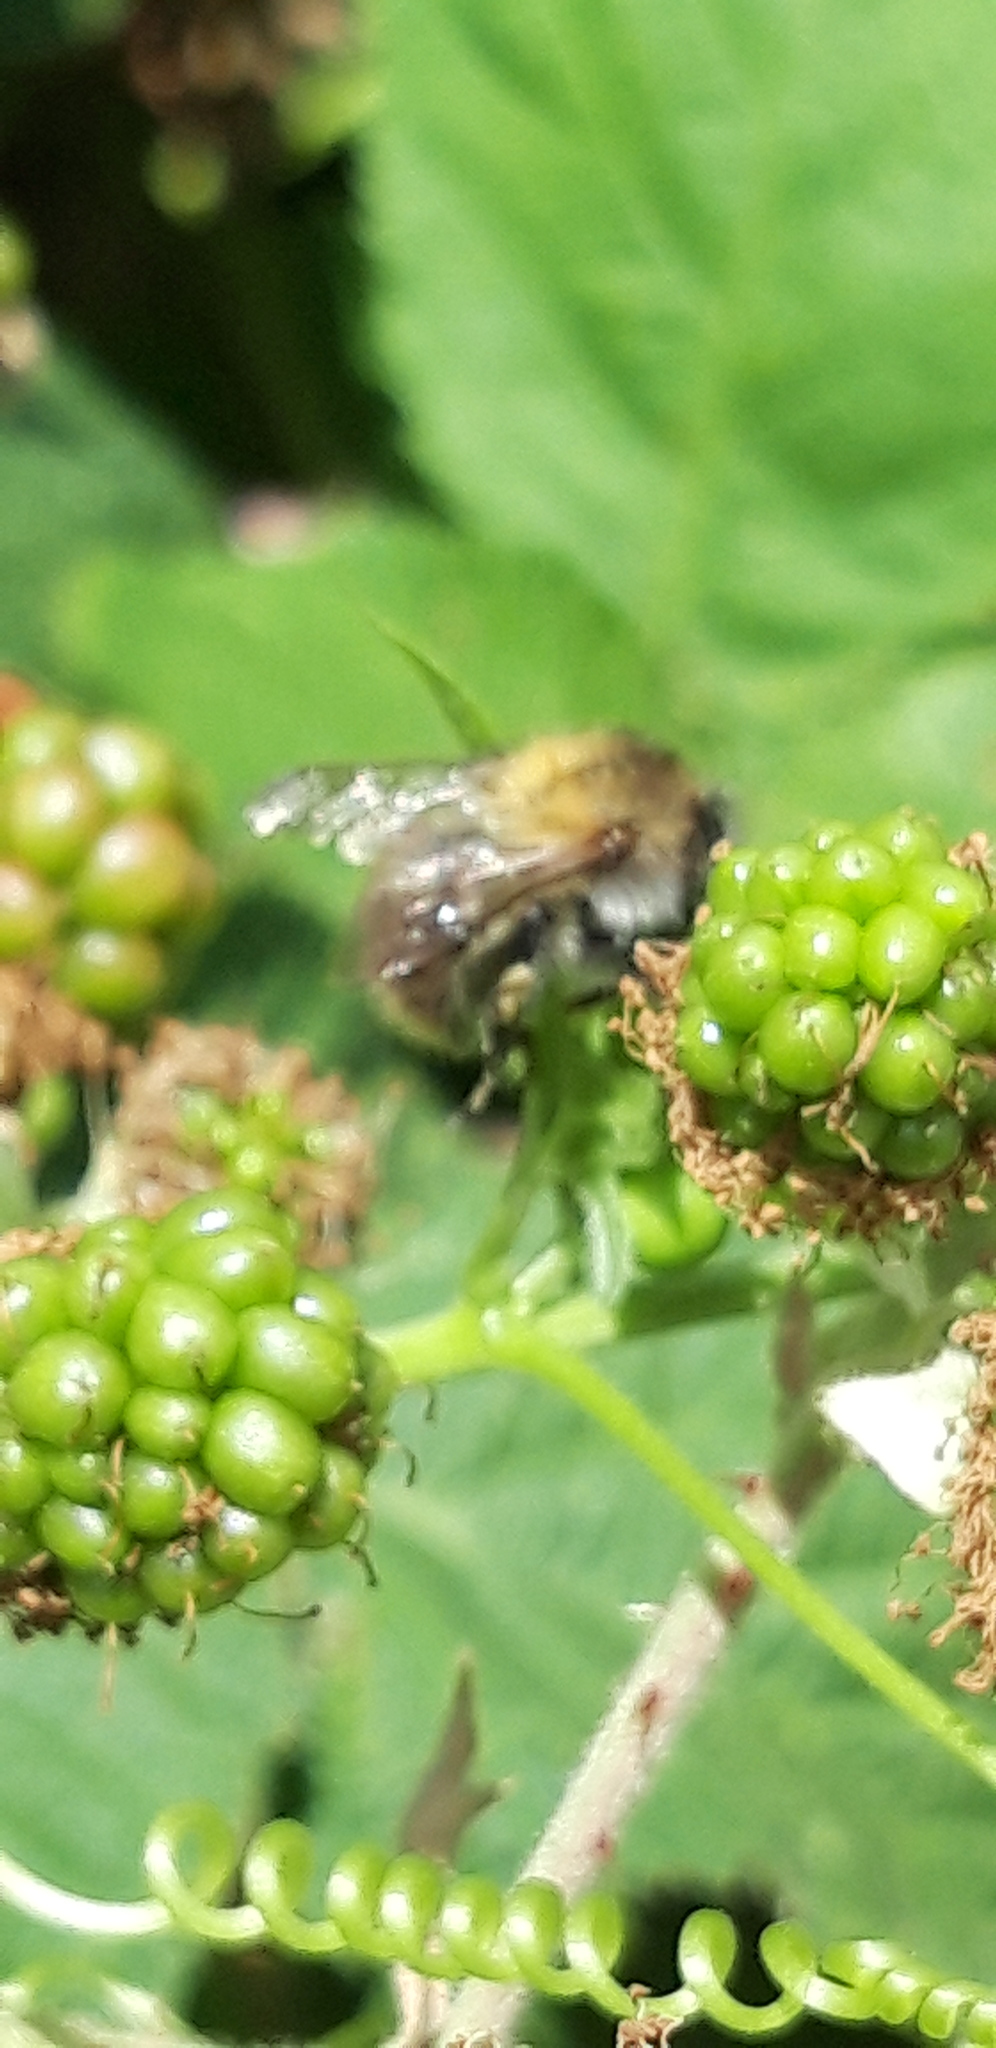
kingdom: Animalia
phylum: Arthropoda
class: Insecta
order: Hymenoptera
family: Apidae
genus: Bombus
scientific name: Bombus pascuorum
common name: Common carder bee
